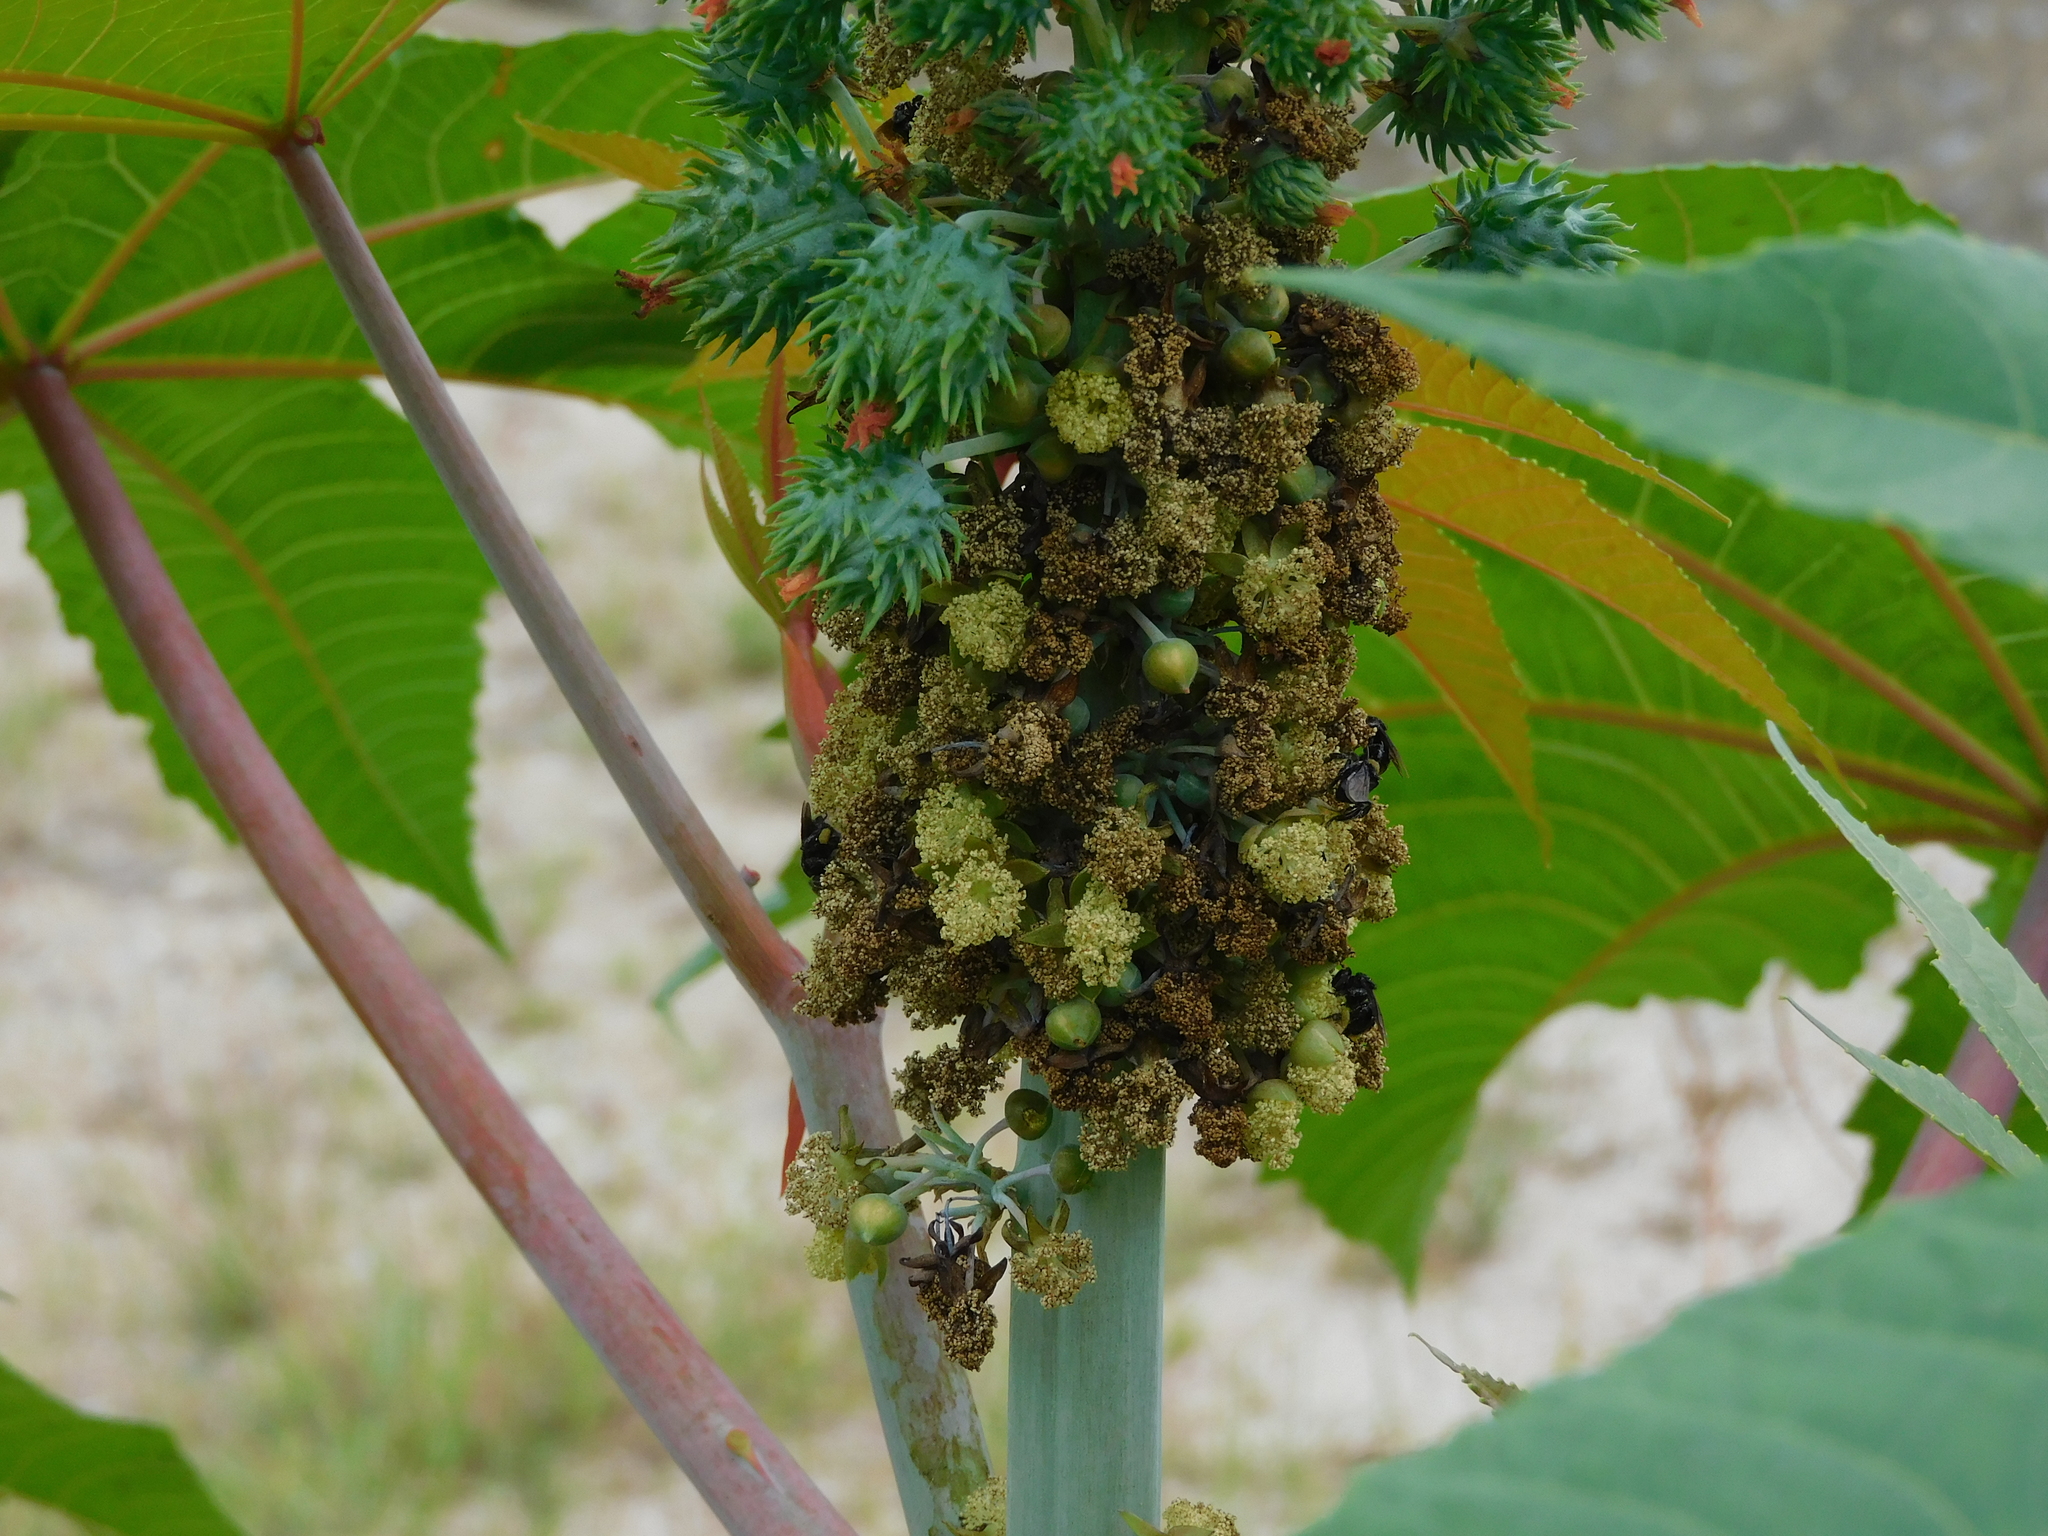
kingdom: Plantae
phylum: Tracheophyta
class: Magnoliopsida
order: Malpighiales
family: Euphorbiaceae
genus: Ricinus
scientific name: Ricinus communis
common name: Castor-oil-plant
